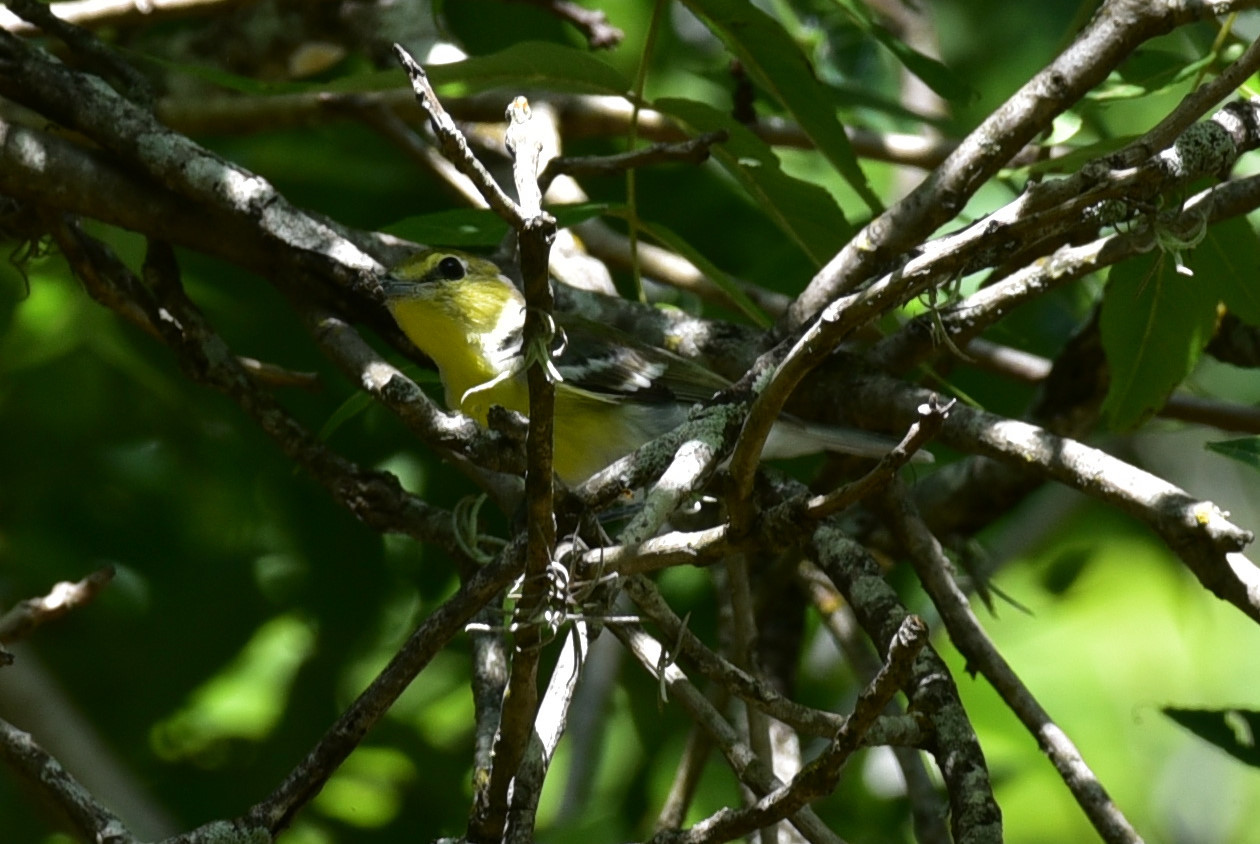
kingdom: Animalia
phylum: Chordata
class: Aves
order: Passeriformes
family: Vireonidae
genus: Vireo
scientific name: Vireo flavifrons
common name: Yellow-throated vireo
